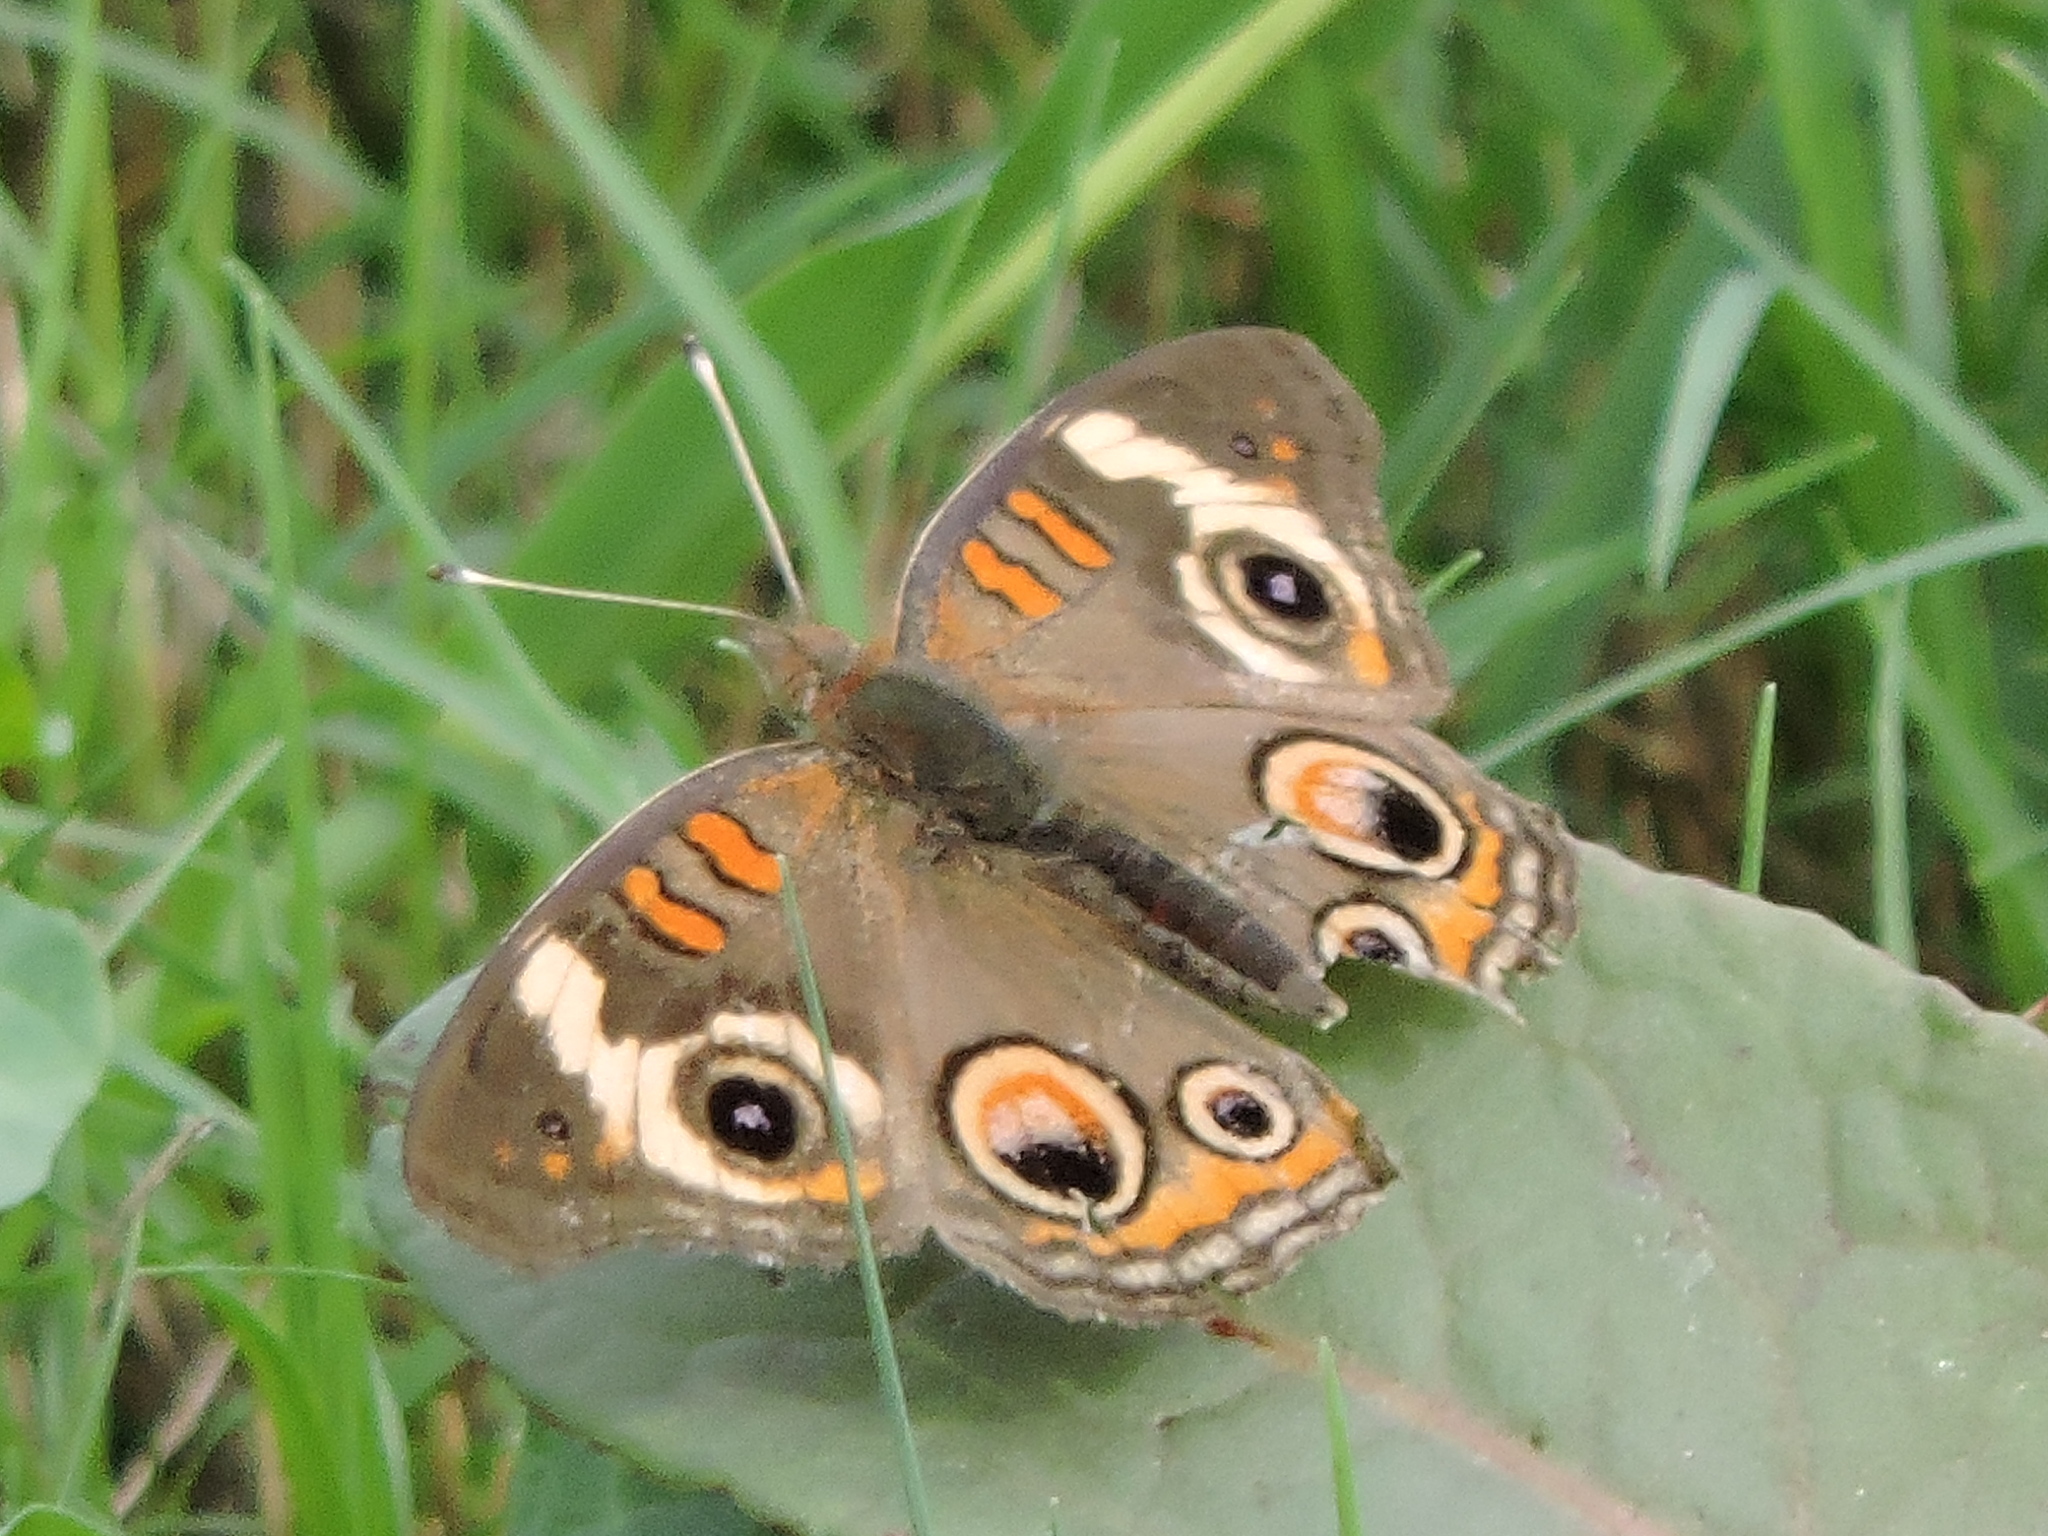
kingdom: Animalia
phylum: Arthropoda
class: Insecta
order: Lepidoptera
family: Nymphalidae
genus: Junonia
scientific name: Junonia coenia
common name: Common buckeye
